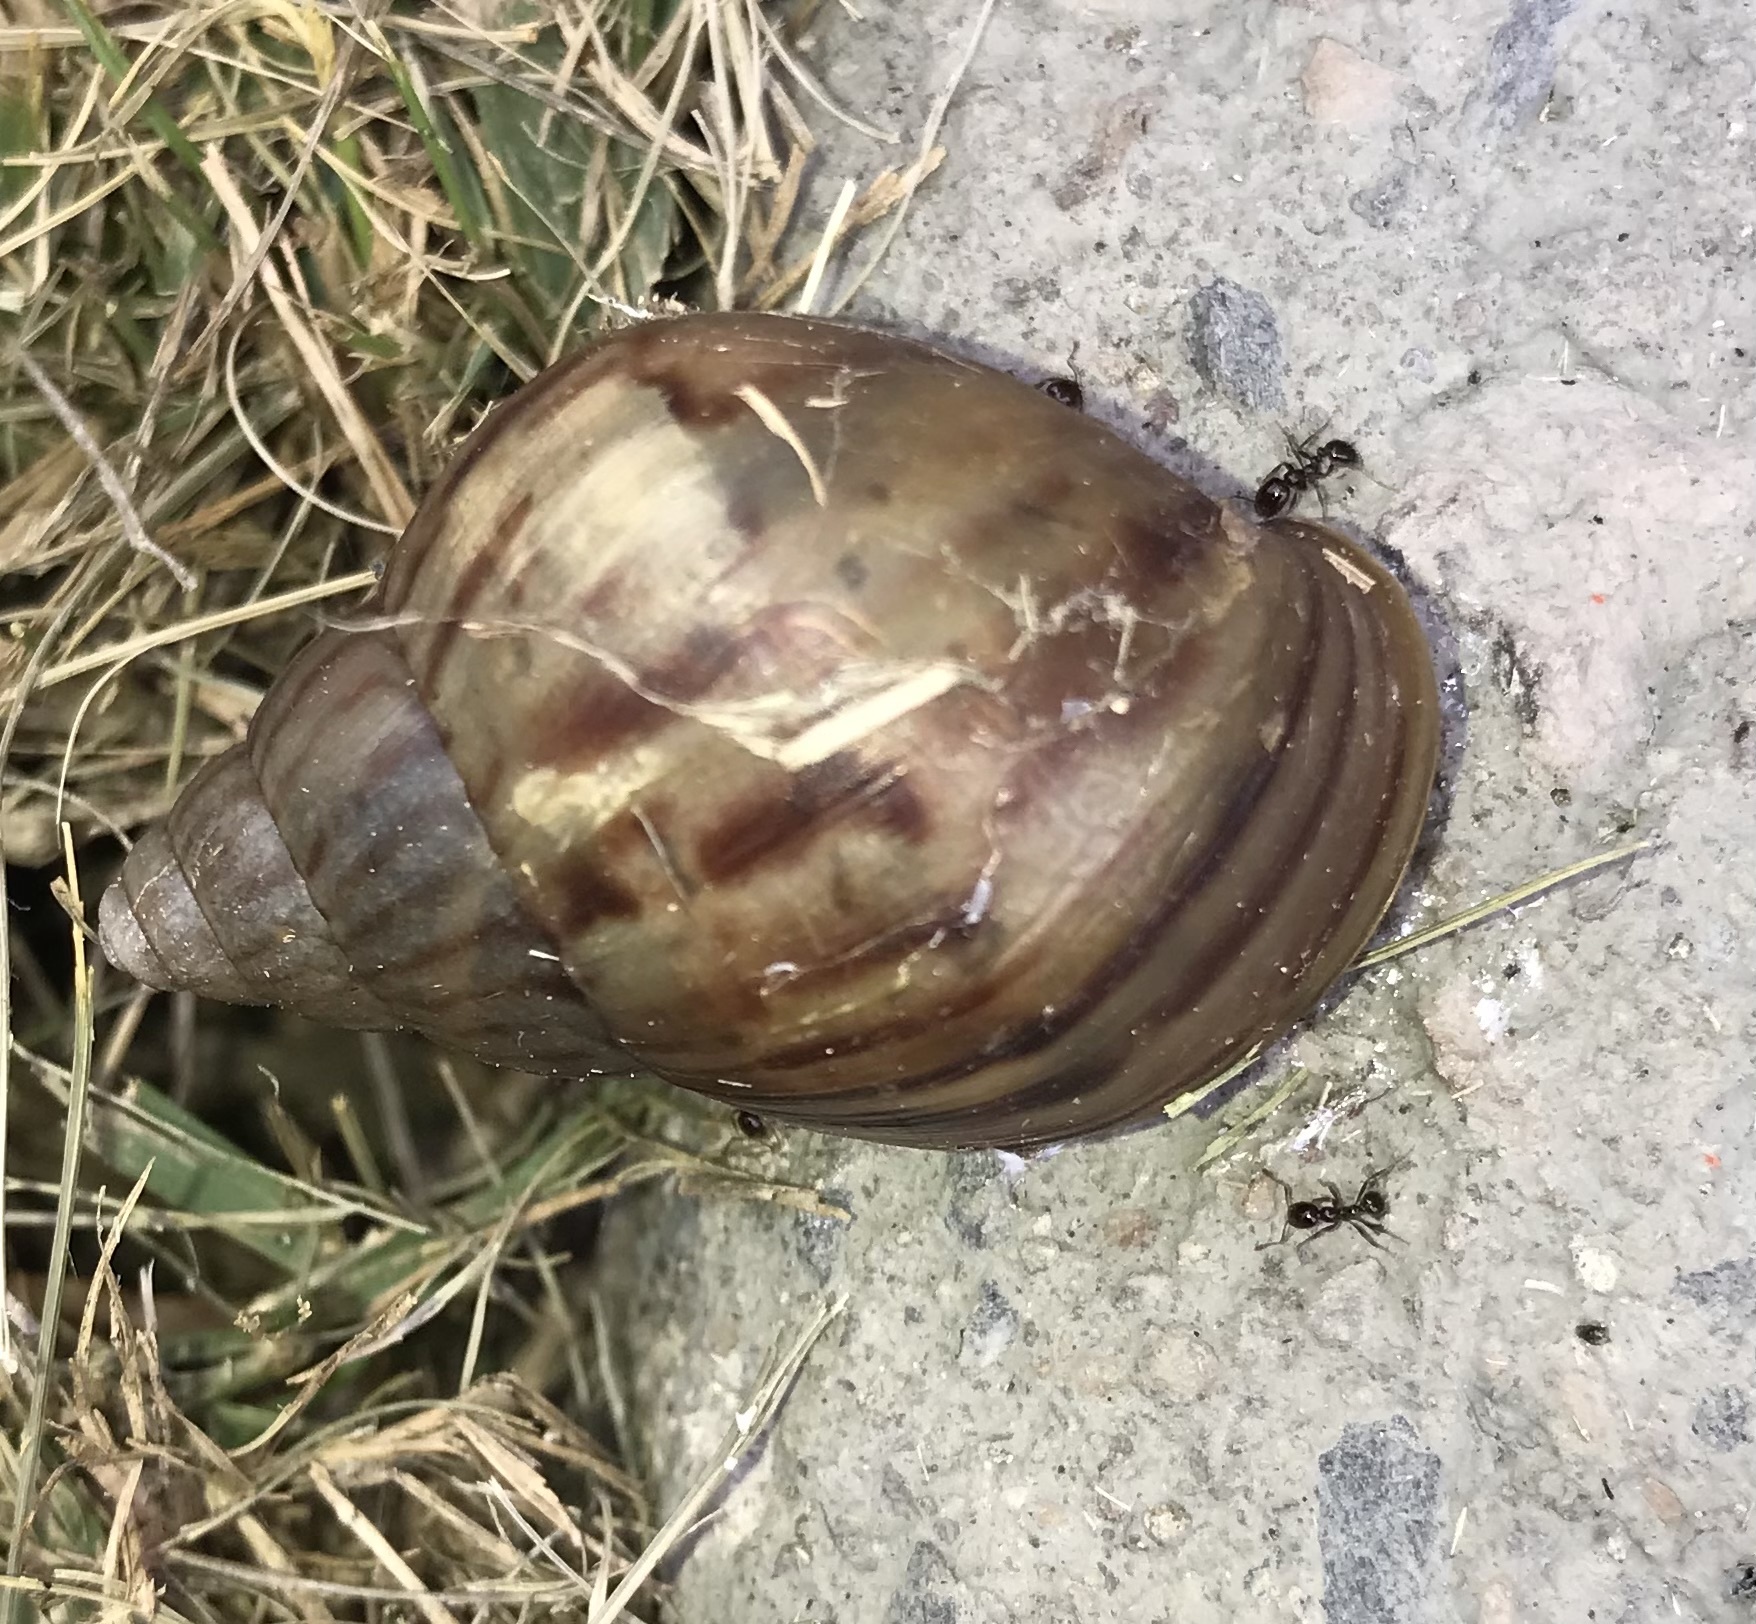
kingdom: Animalia
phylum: Mollusca
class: Gastropoda
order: Stylommatophora
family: Achatinidae
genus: Lissachatina
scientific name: Lissachatina fulica
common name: Giant african snail
